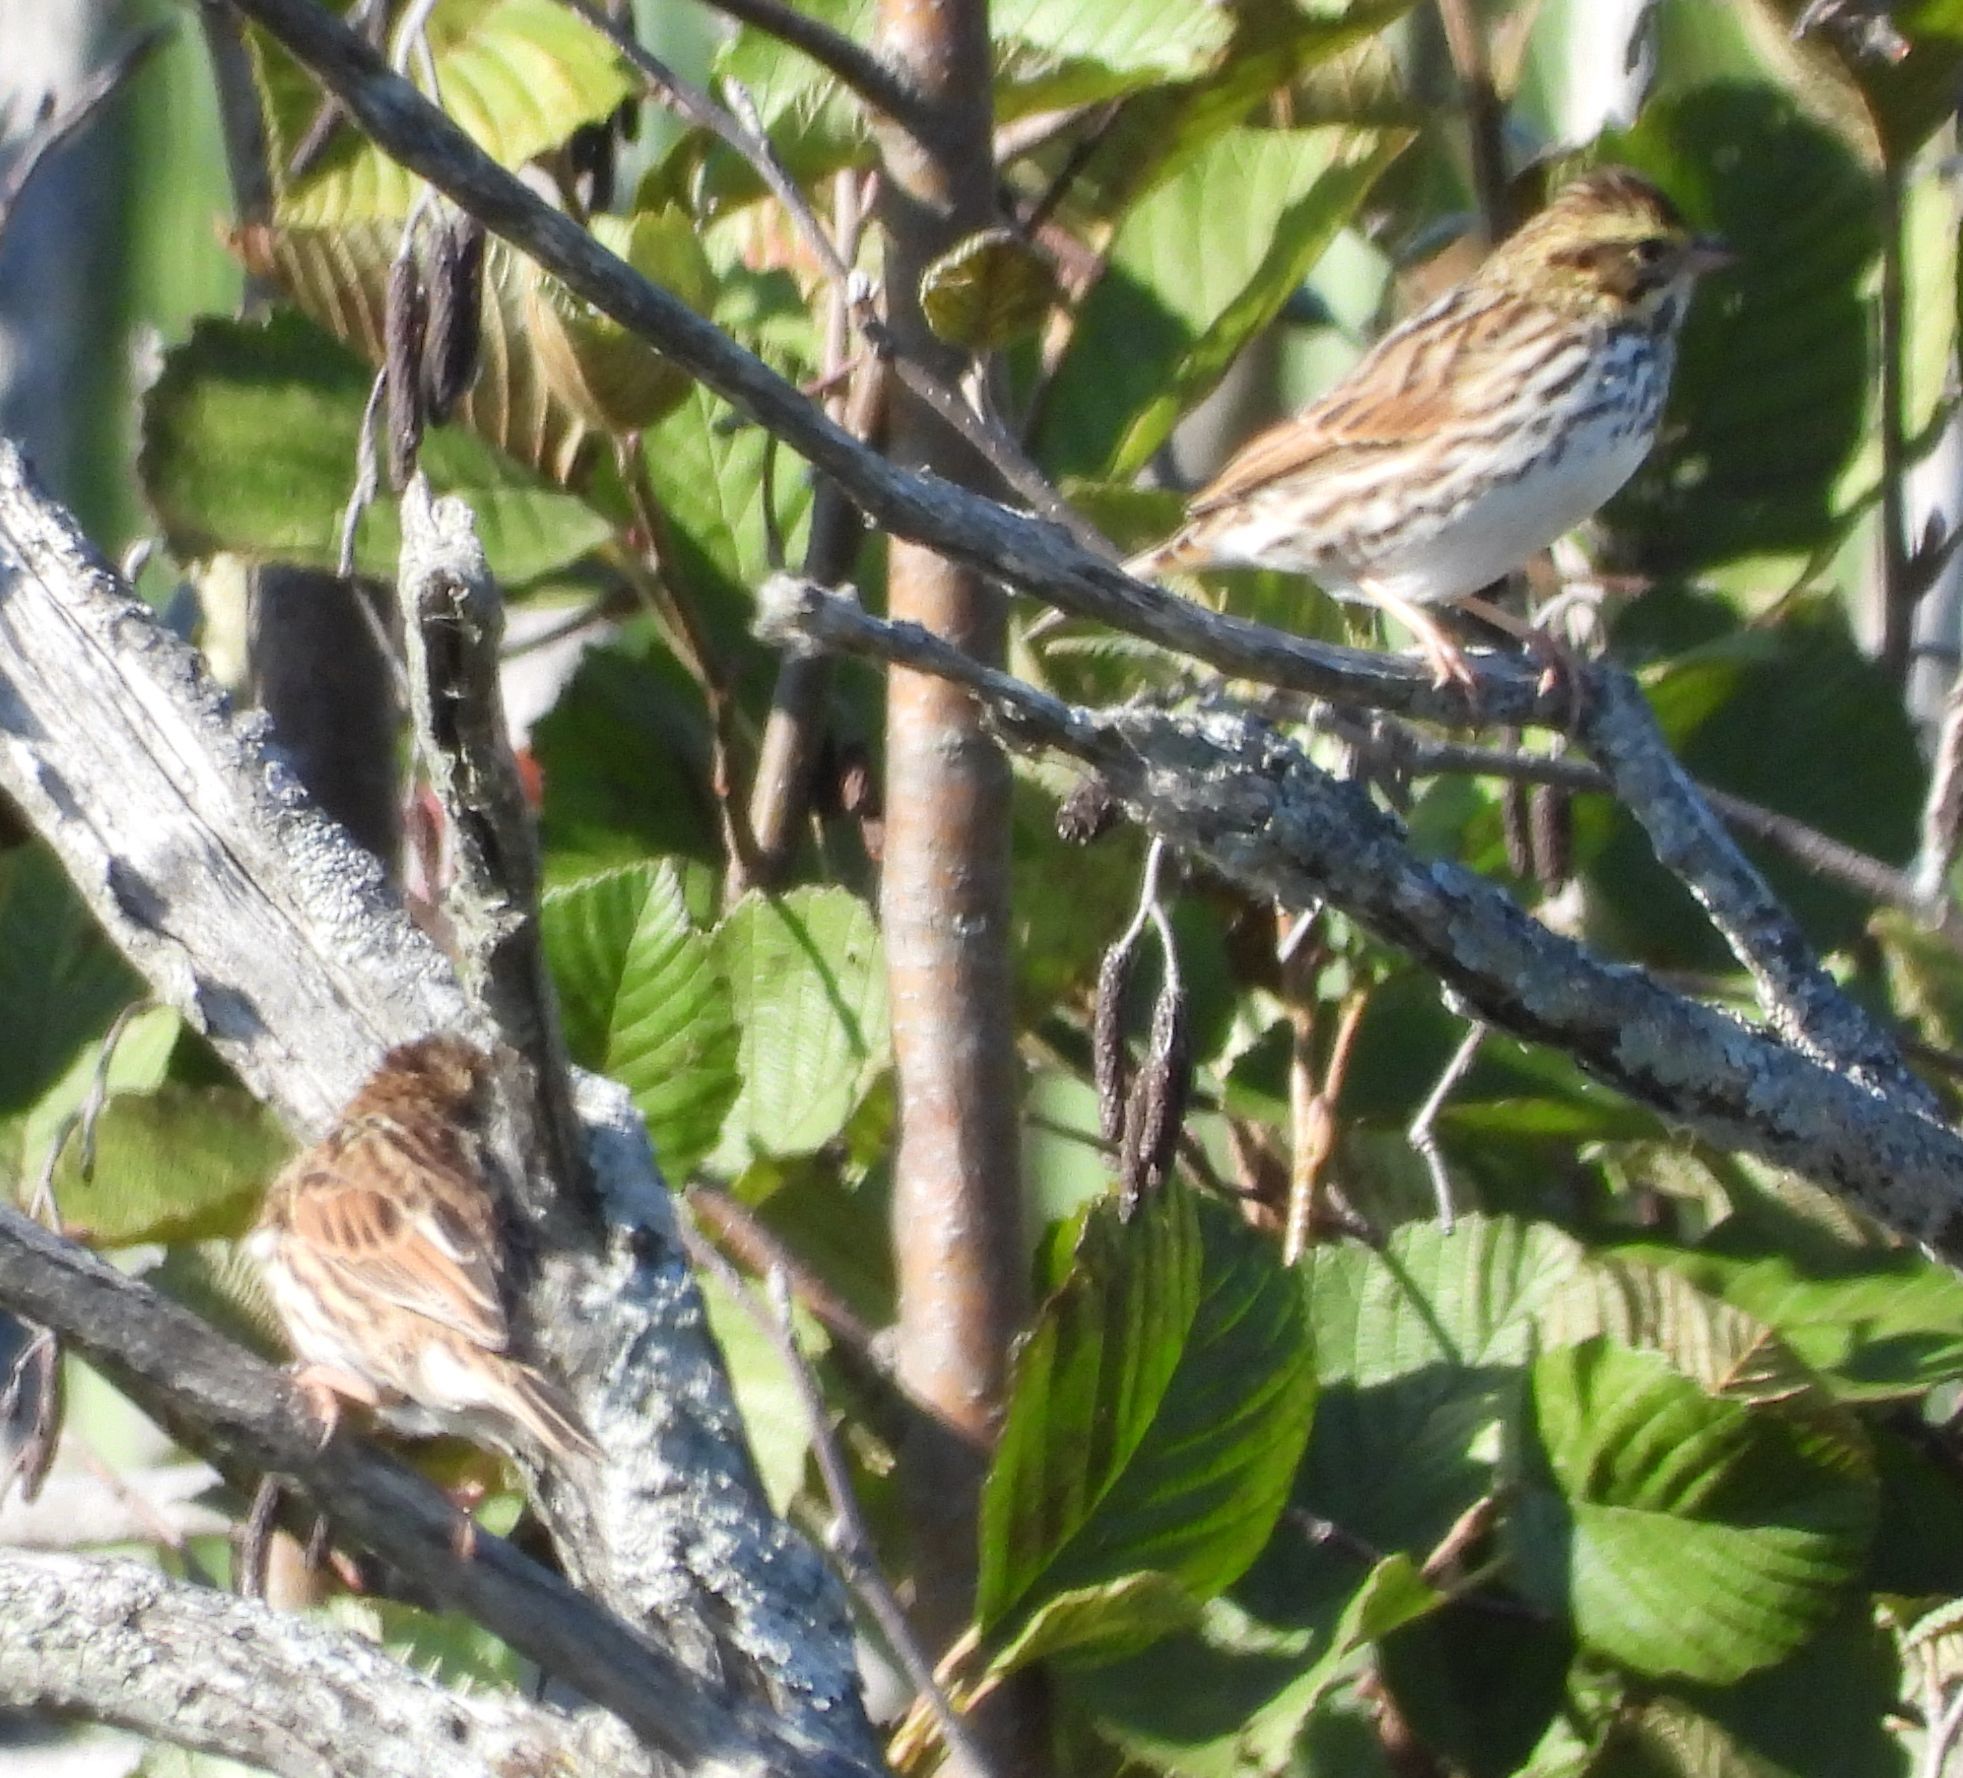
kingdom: Animalia
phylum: Chordata
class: Aves
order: Passeriformes
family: Passerellidae
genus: Passerculus
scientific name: Passerculus sandwichensis
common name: Savannah sparrow
